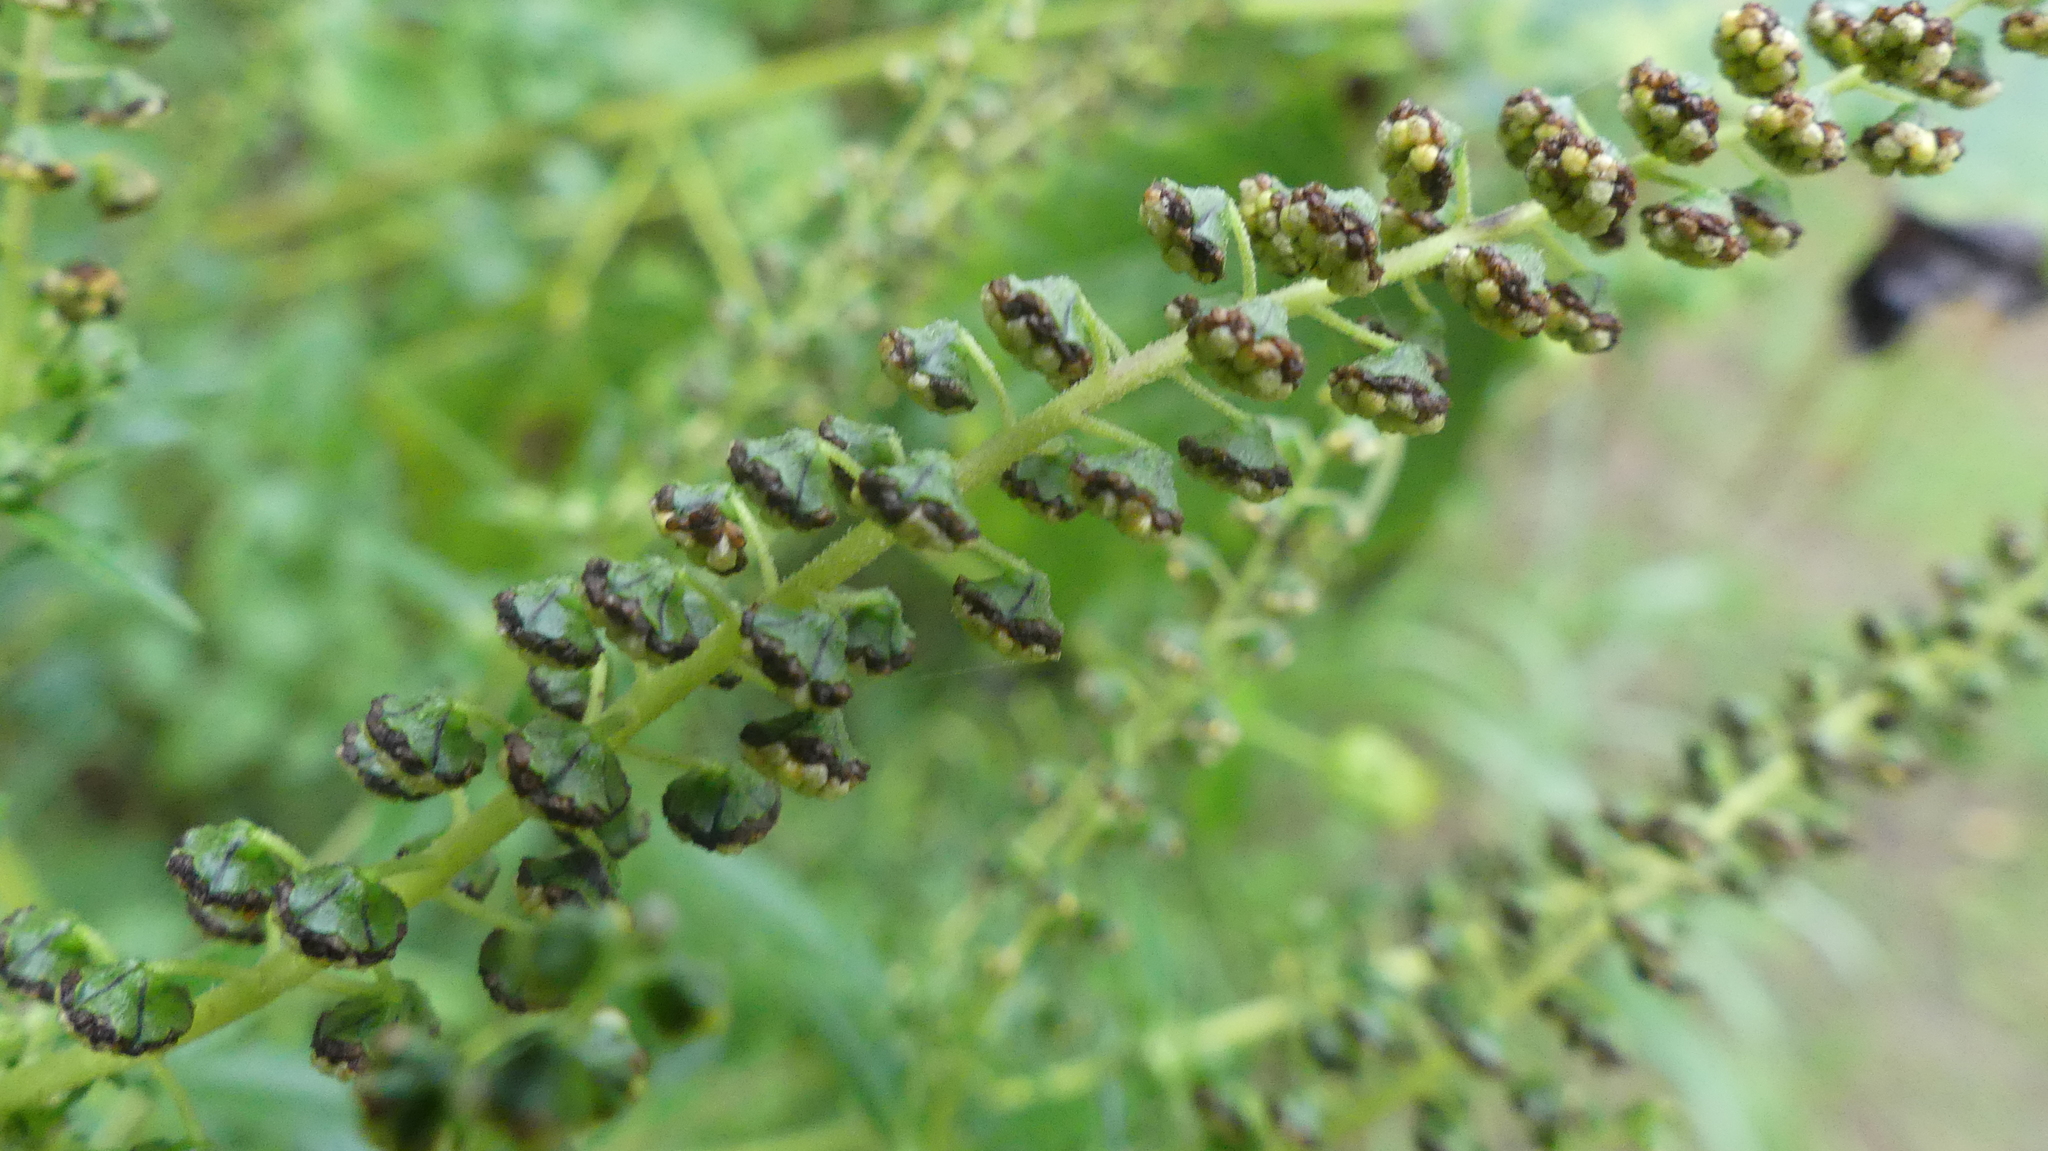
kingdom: Plantae
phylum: Tracheophyta
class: Magnoliopsida
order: Asterales
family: Asteraceae
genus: Ambrosia
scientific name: Ambrosia trifida
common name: Giant ragweed
